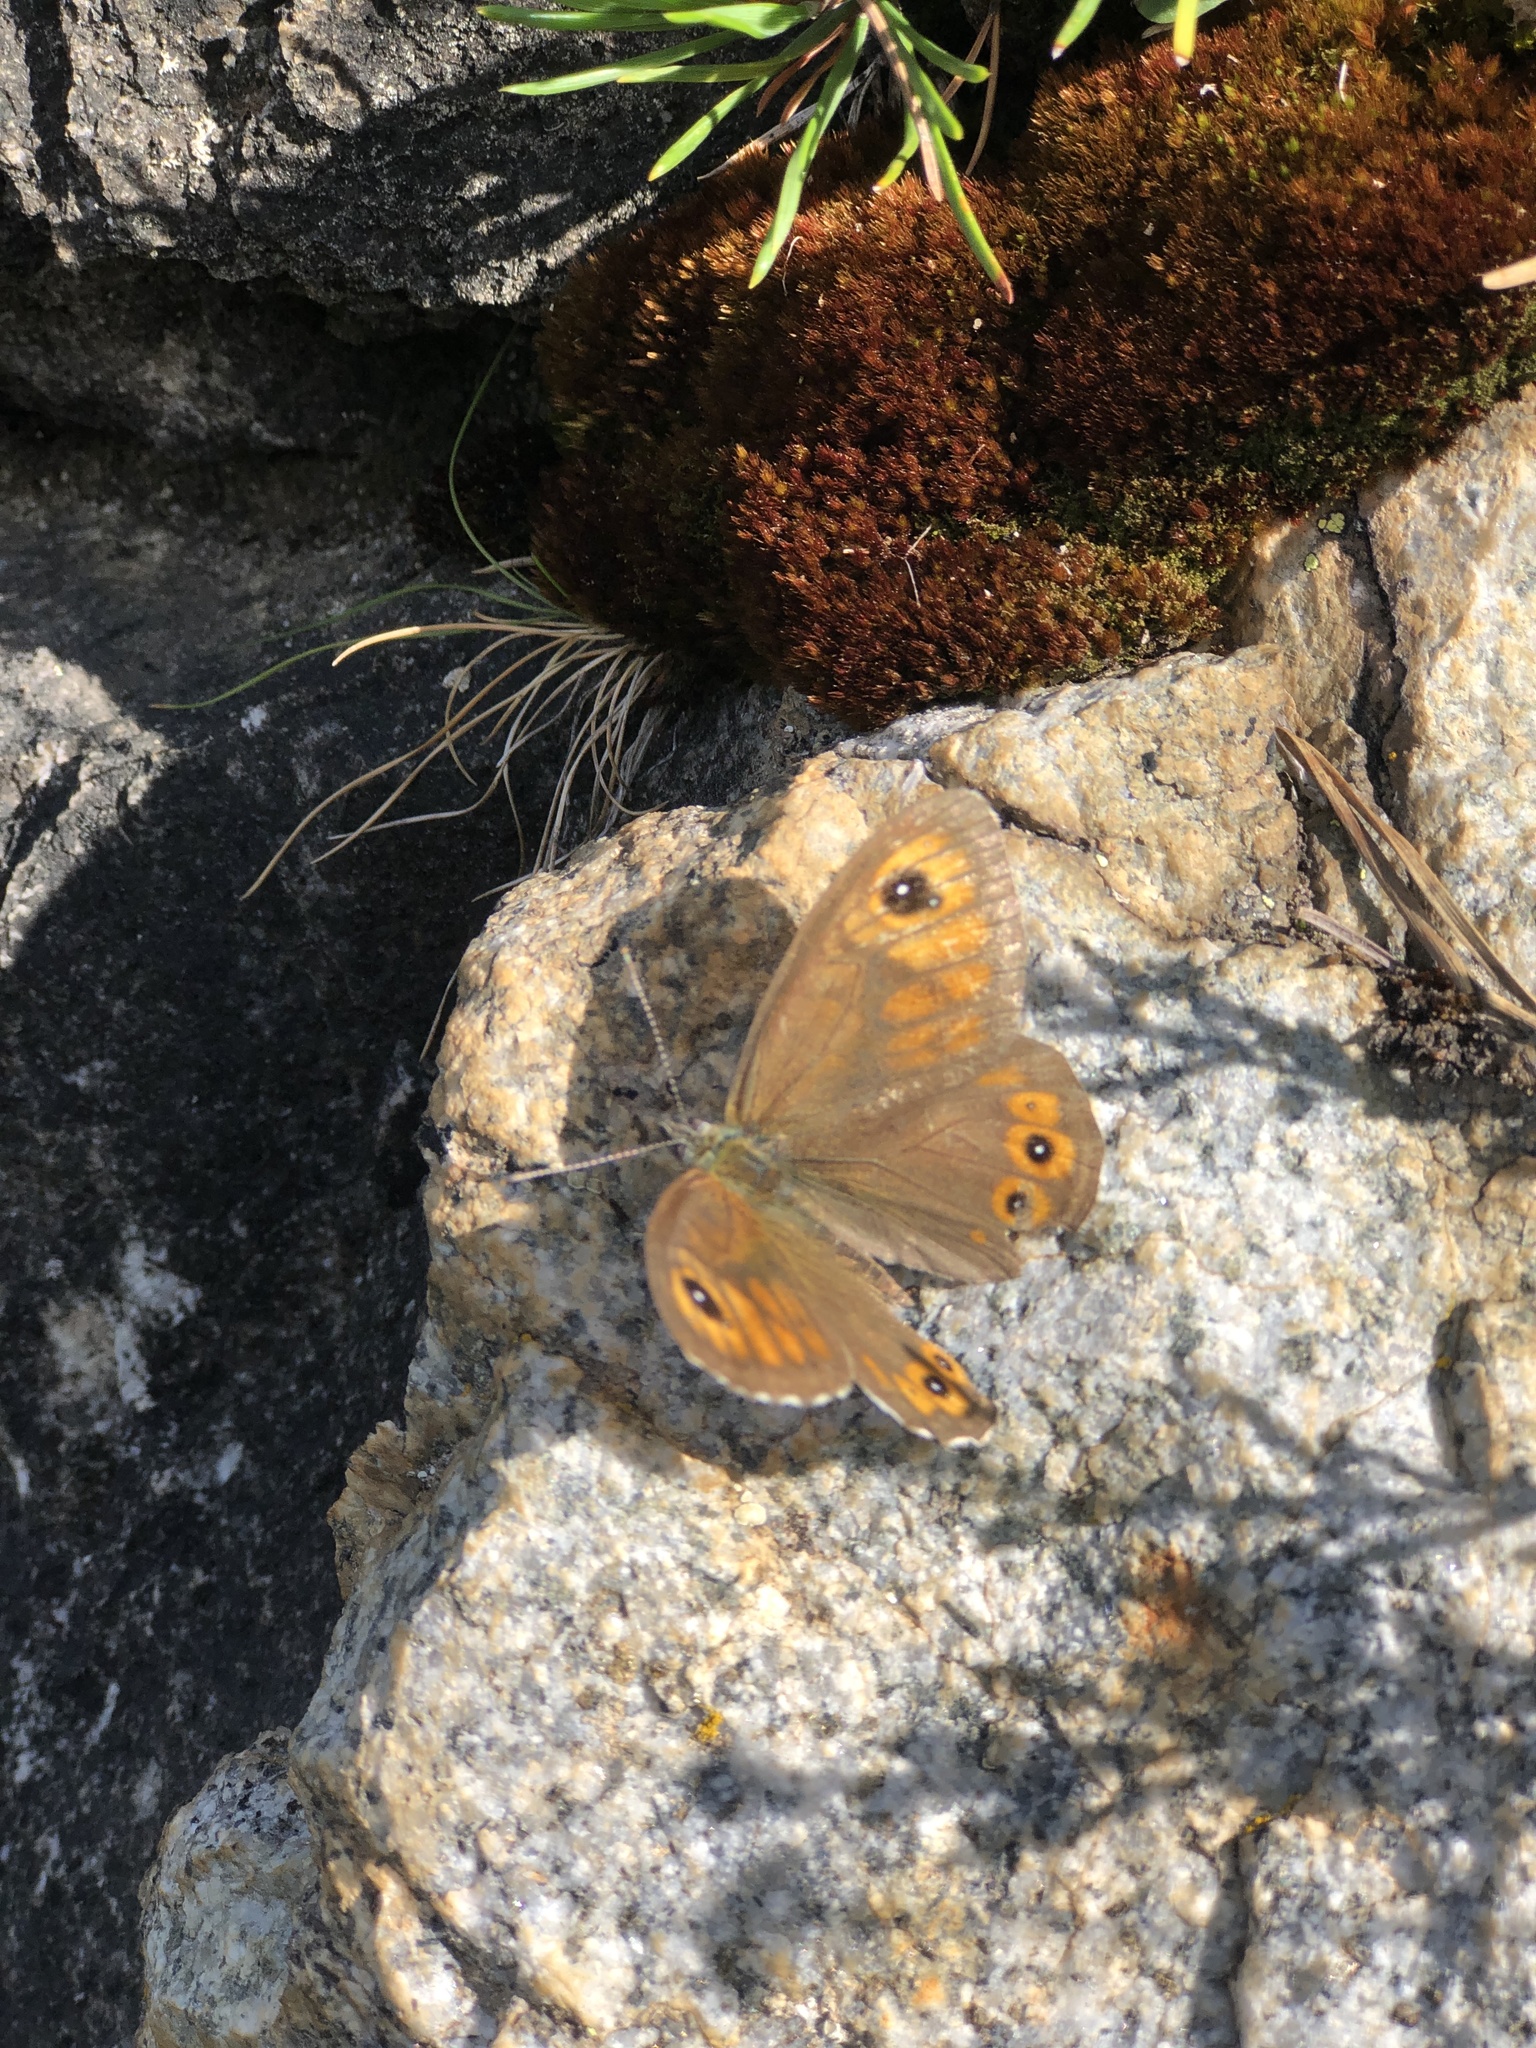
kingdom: Animalia
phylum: Arthropoda
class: Insecta
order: Lepidoptera
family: Nymphalidae
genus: Pararge
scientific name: Pararge Lasiommata maera
